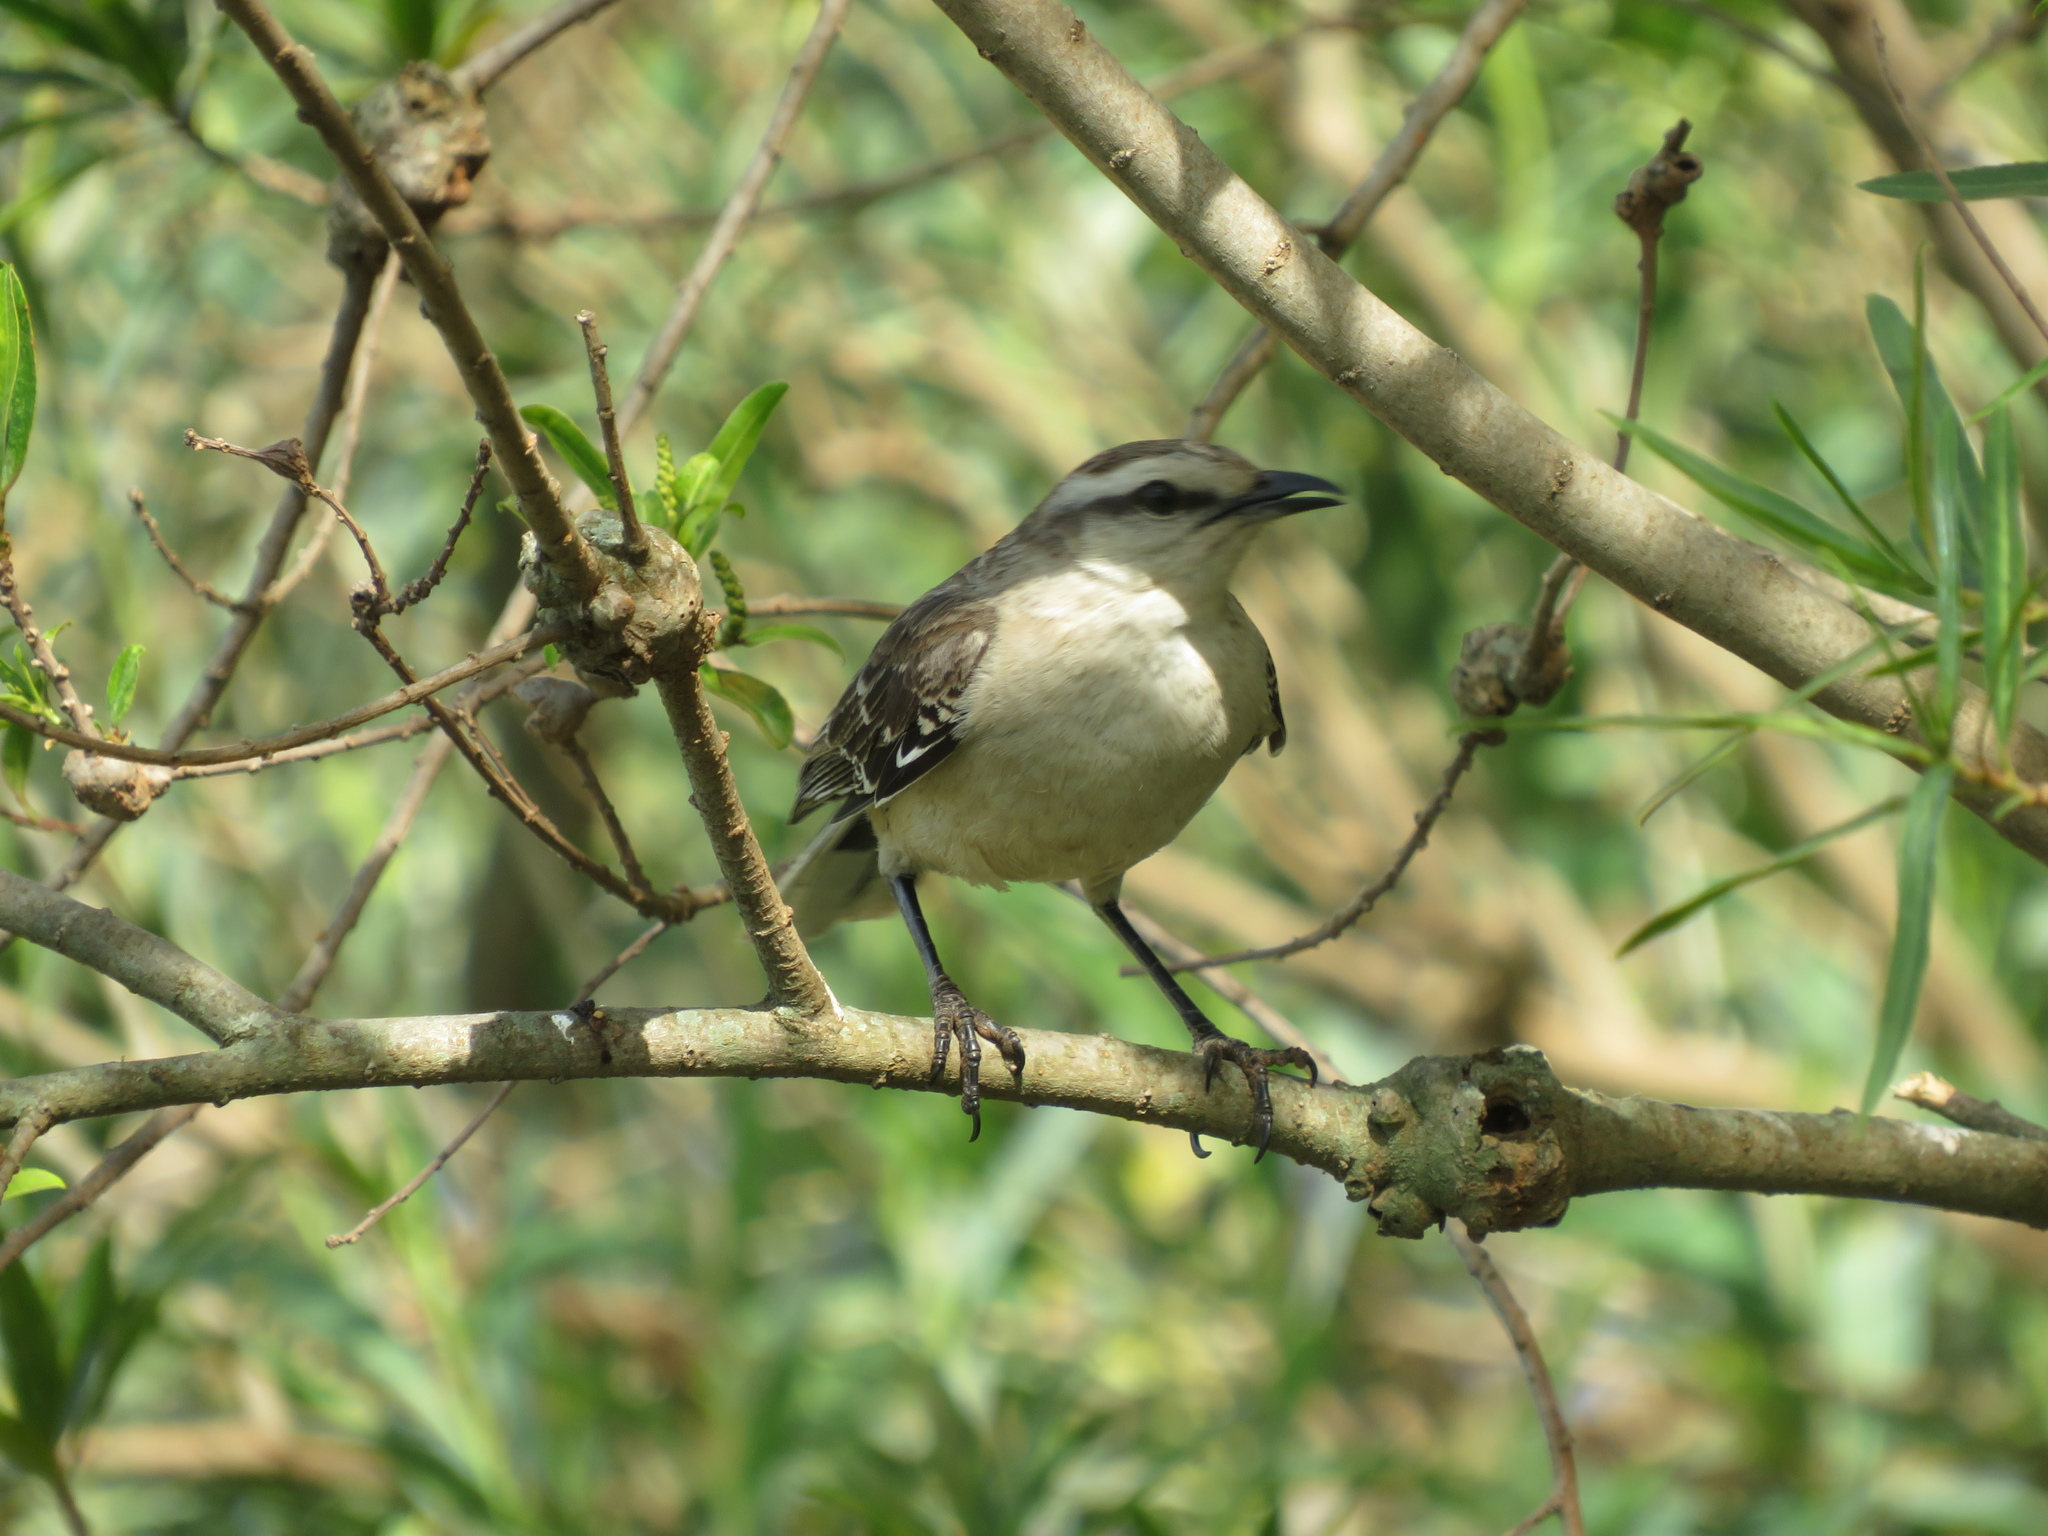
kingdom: Animalia
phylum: Chordata
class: Aves
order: Passeriformes
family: Mimidae
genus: Mimus
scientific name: Mimus saturninus
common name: Chalk-browed mockingbird
